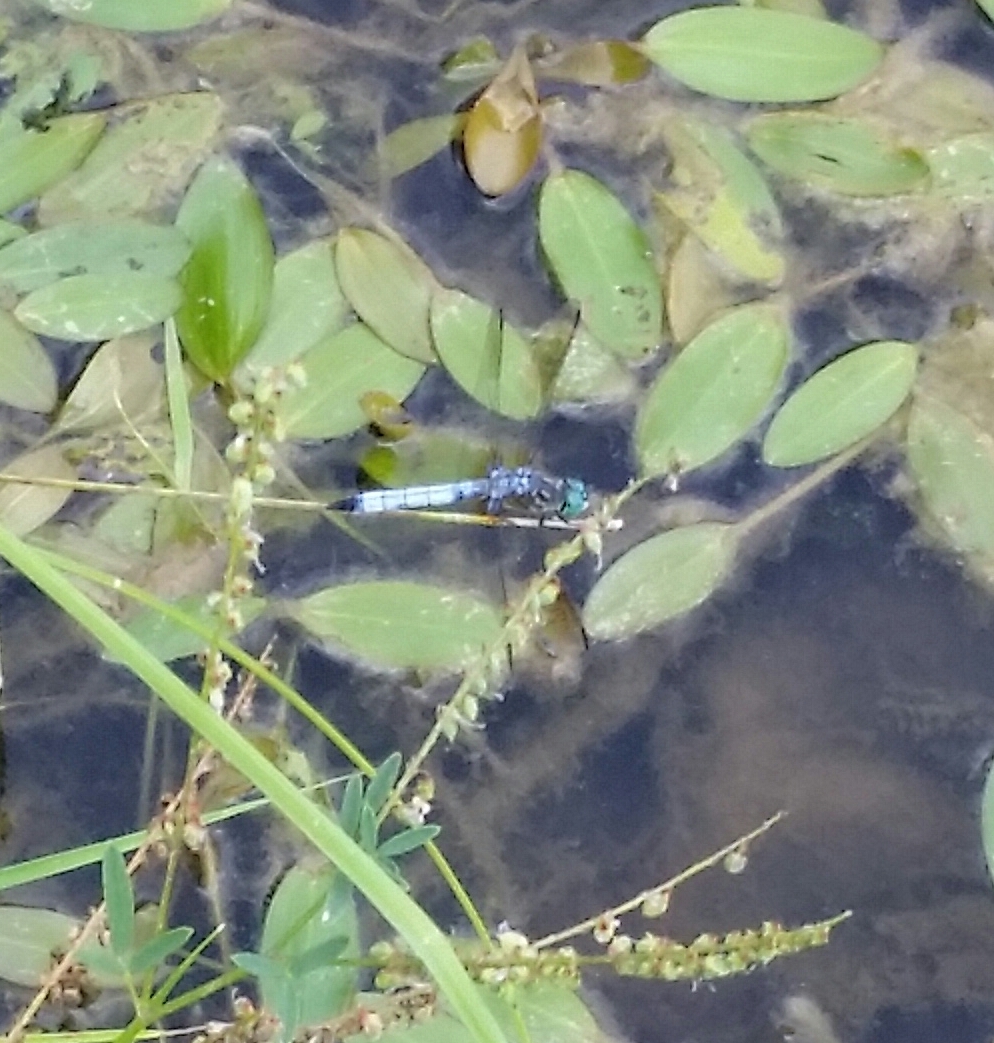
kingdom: Animalia
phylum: Arthropoda
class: Insecta
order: Odonata
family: Libellulidae
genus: Pachydiplax
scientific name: Pachydiplax longipennis
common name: Blue dasher
